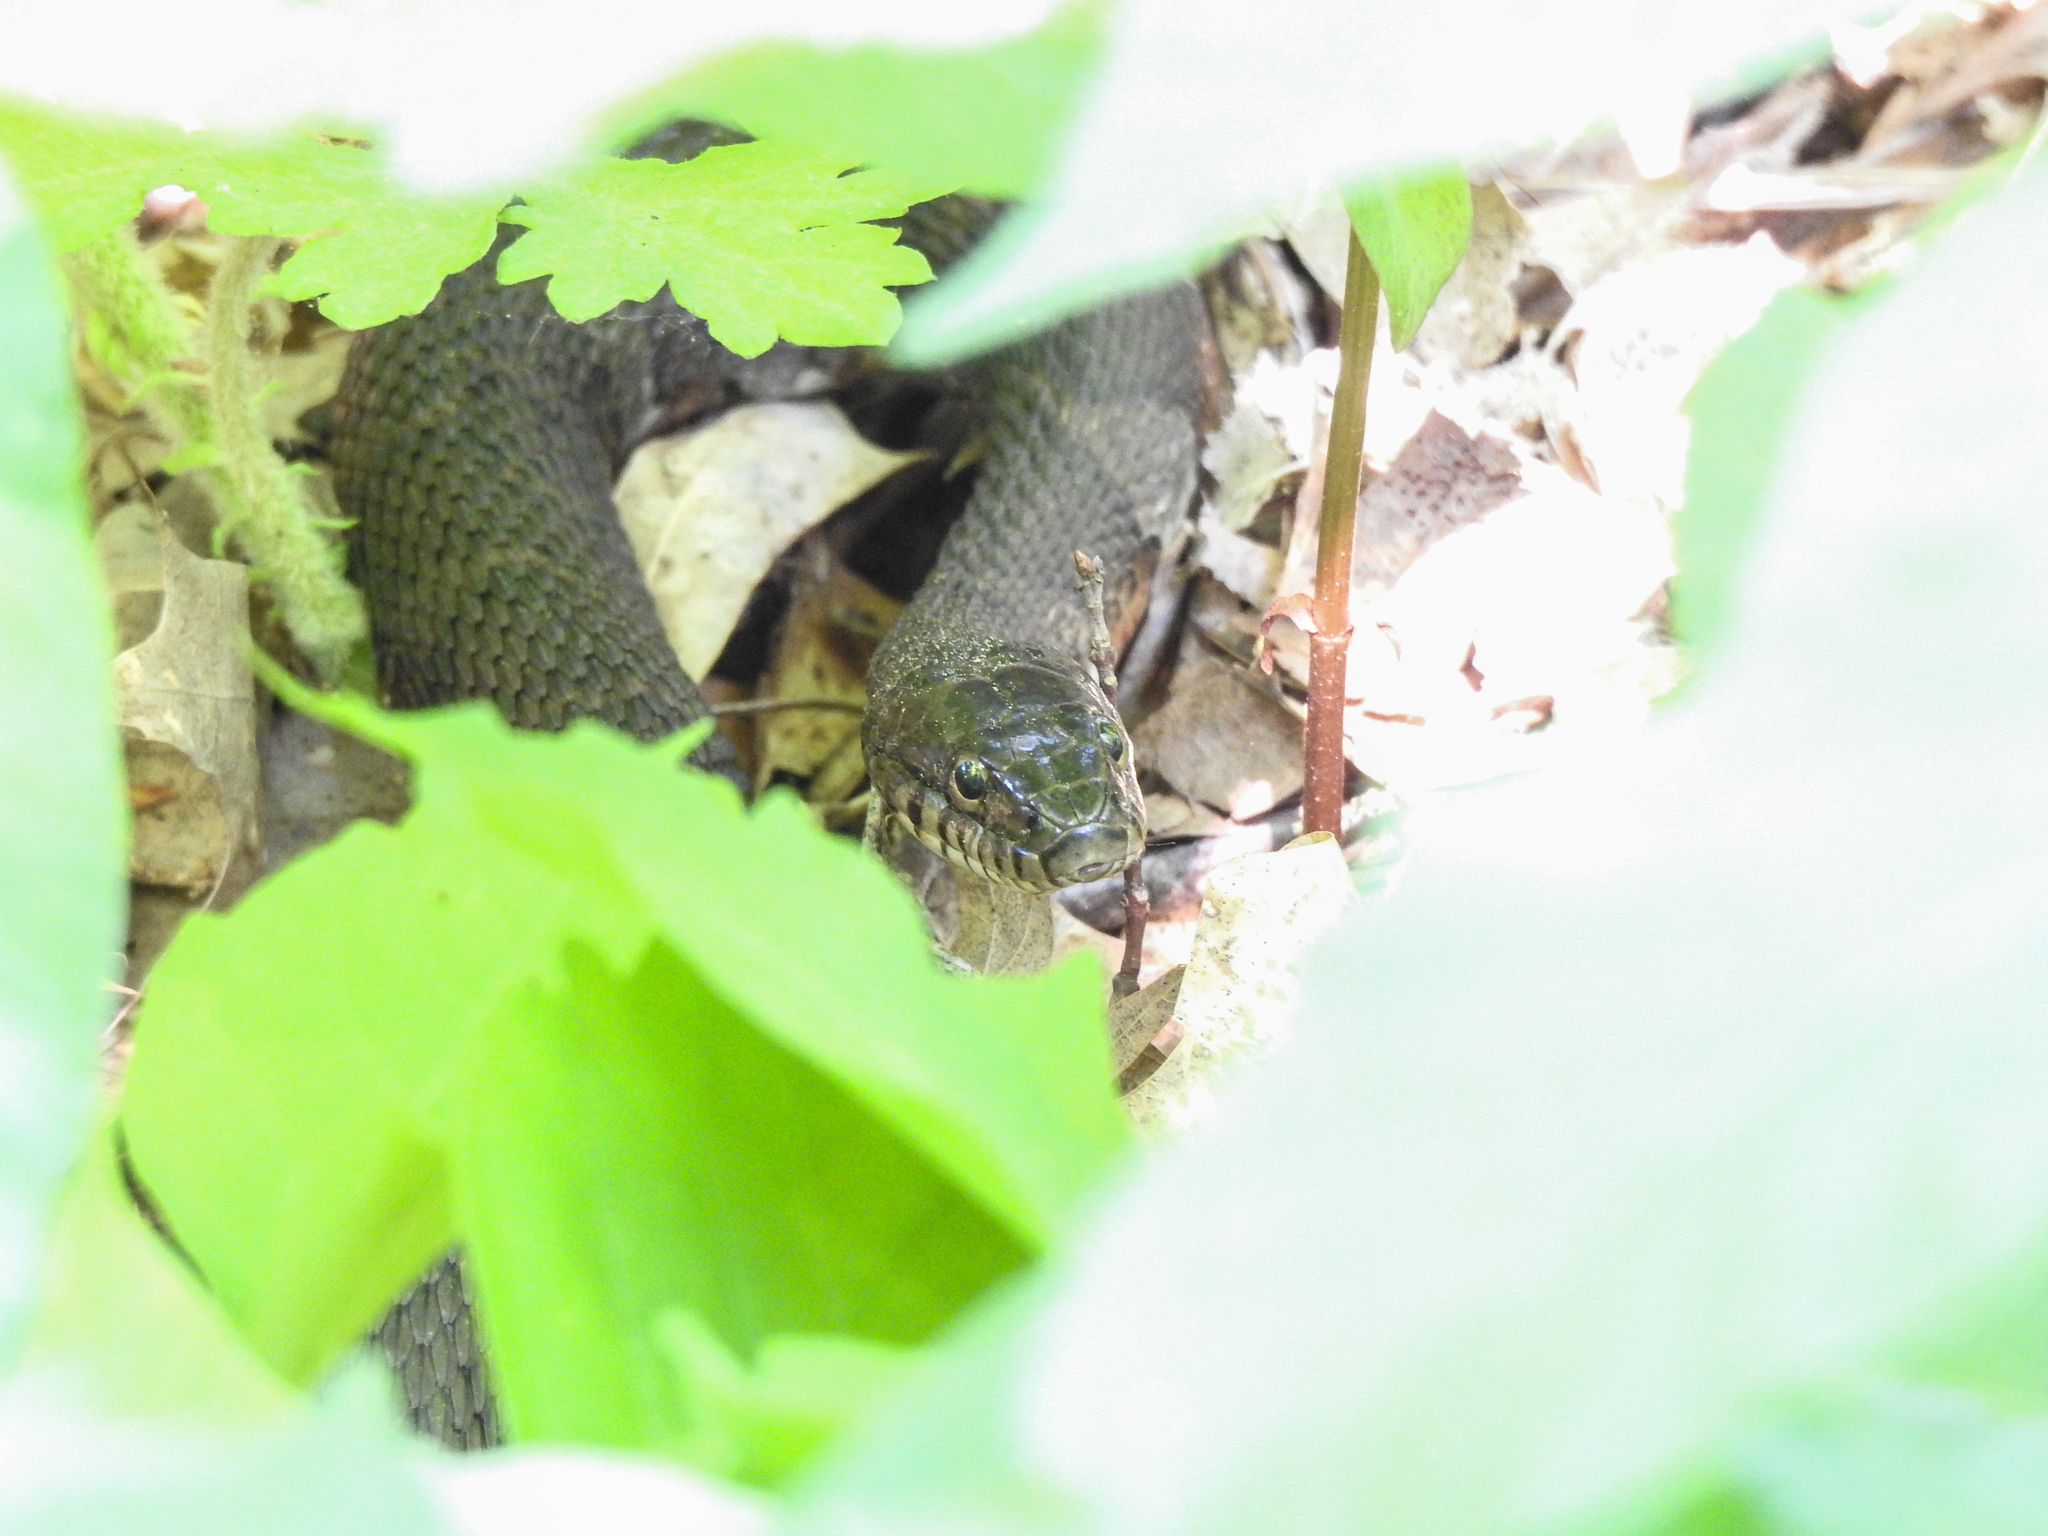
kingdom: Animalia
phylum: Chordata
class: Squamata
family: Colubridae
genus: Nerodia
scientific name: Nerodia sipedon
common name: Northern water snake
